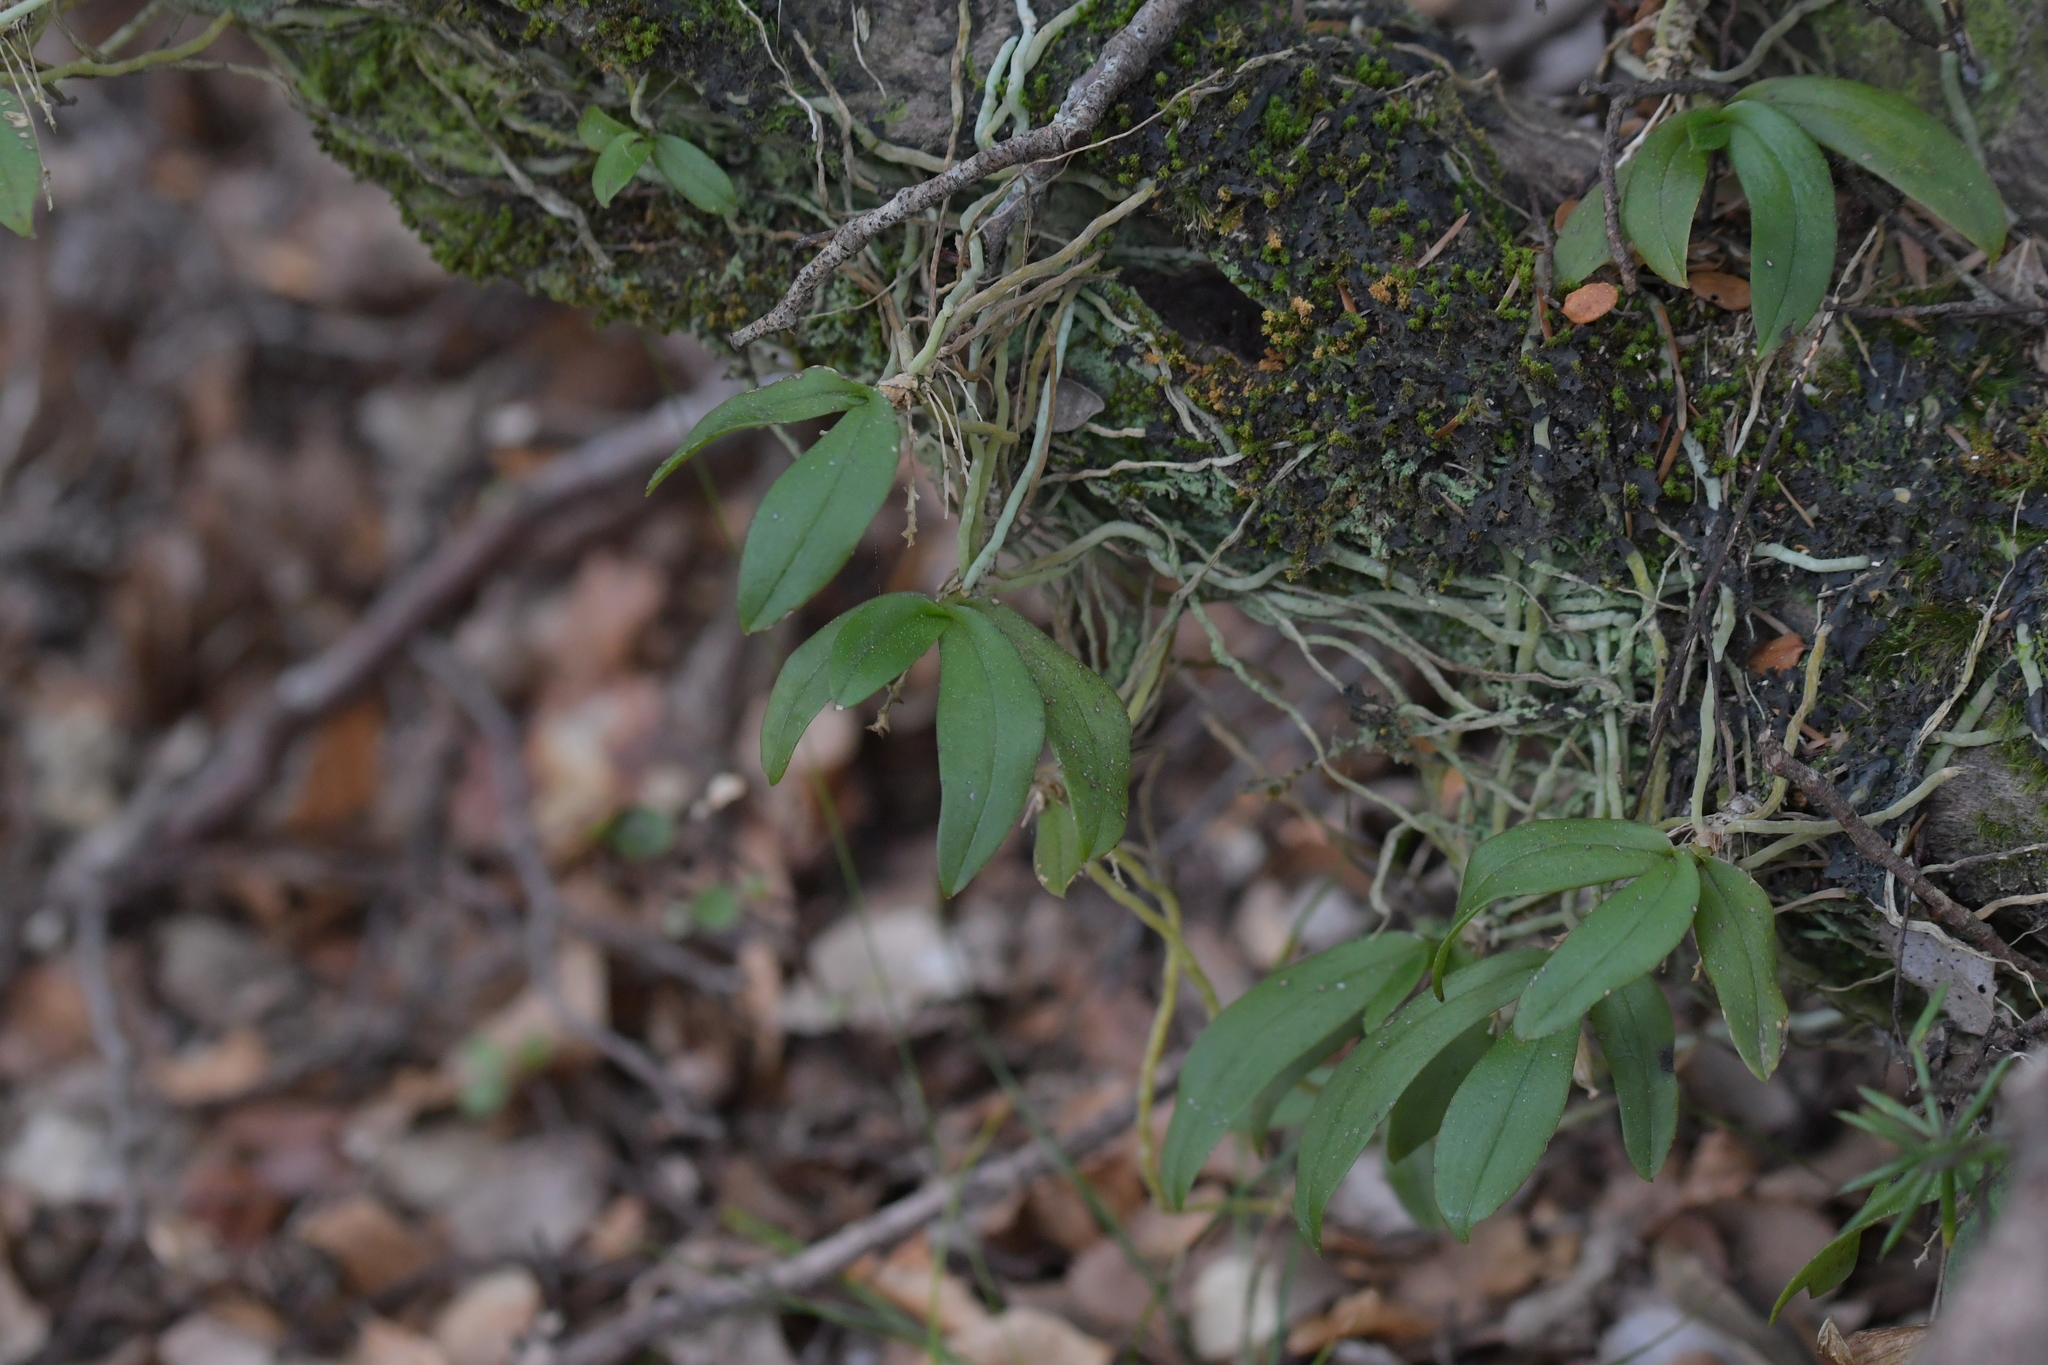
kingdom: Plantae
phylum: Tracheophyta
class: Liliopsida
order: Asparagales
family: Orchidaceae
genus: Drymoanthus
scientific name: Drymoanthus adversus
